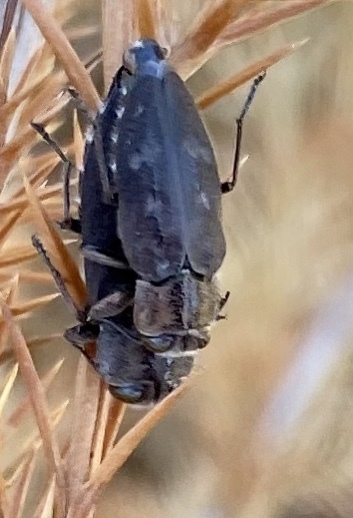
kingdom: Animalia
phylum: Arthropoda
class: Insecta
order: Coleoptera
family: Buprestidae
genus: Chrysobothris
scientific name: Chrysobothris cribraria
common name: Sifting metallic wood-borer
